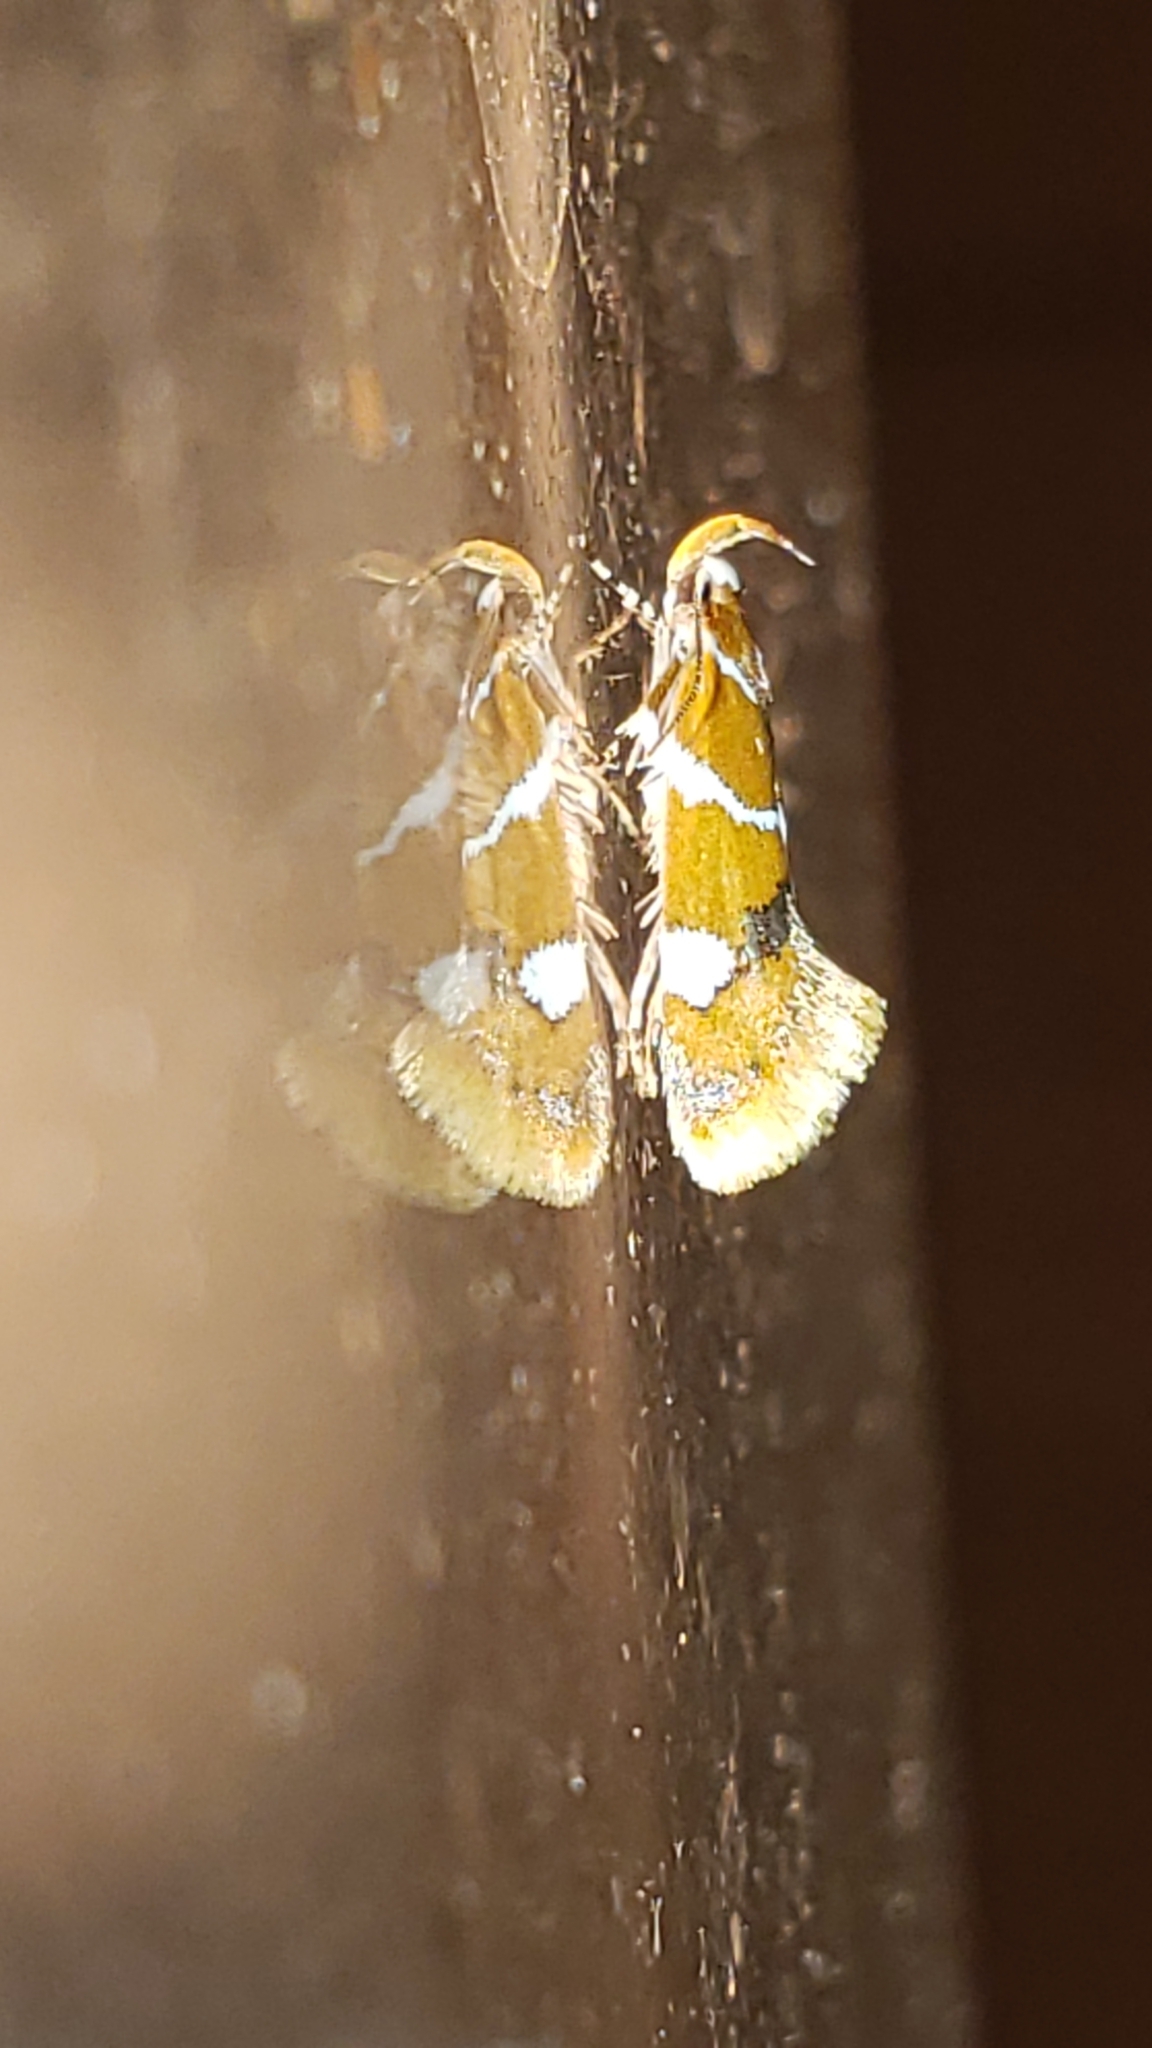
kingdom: Animalia
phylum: Arthropoda
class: Insecta
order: Lepidoptera
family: Oecophoridae
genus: Promalactis
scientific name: Promalactis suzukiella
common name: Moth
